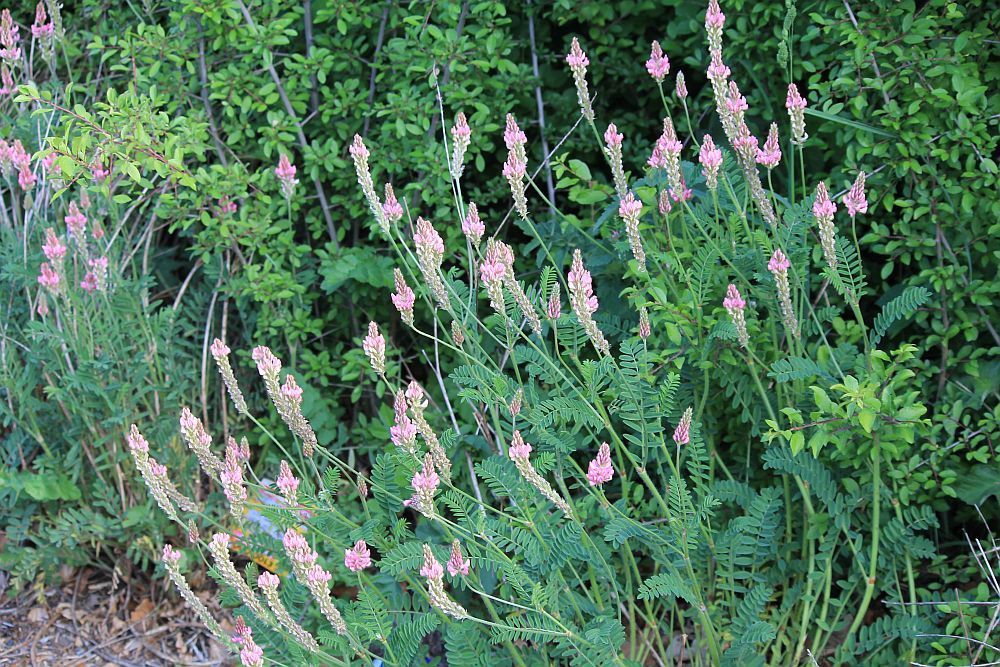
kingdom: Plantae
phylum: Tracheophyta
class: Magnoliopsida
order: Fabales
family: Fabaceae
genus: Onobrychis
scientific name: Onobrychis viciifolia
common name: Sainfoin
